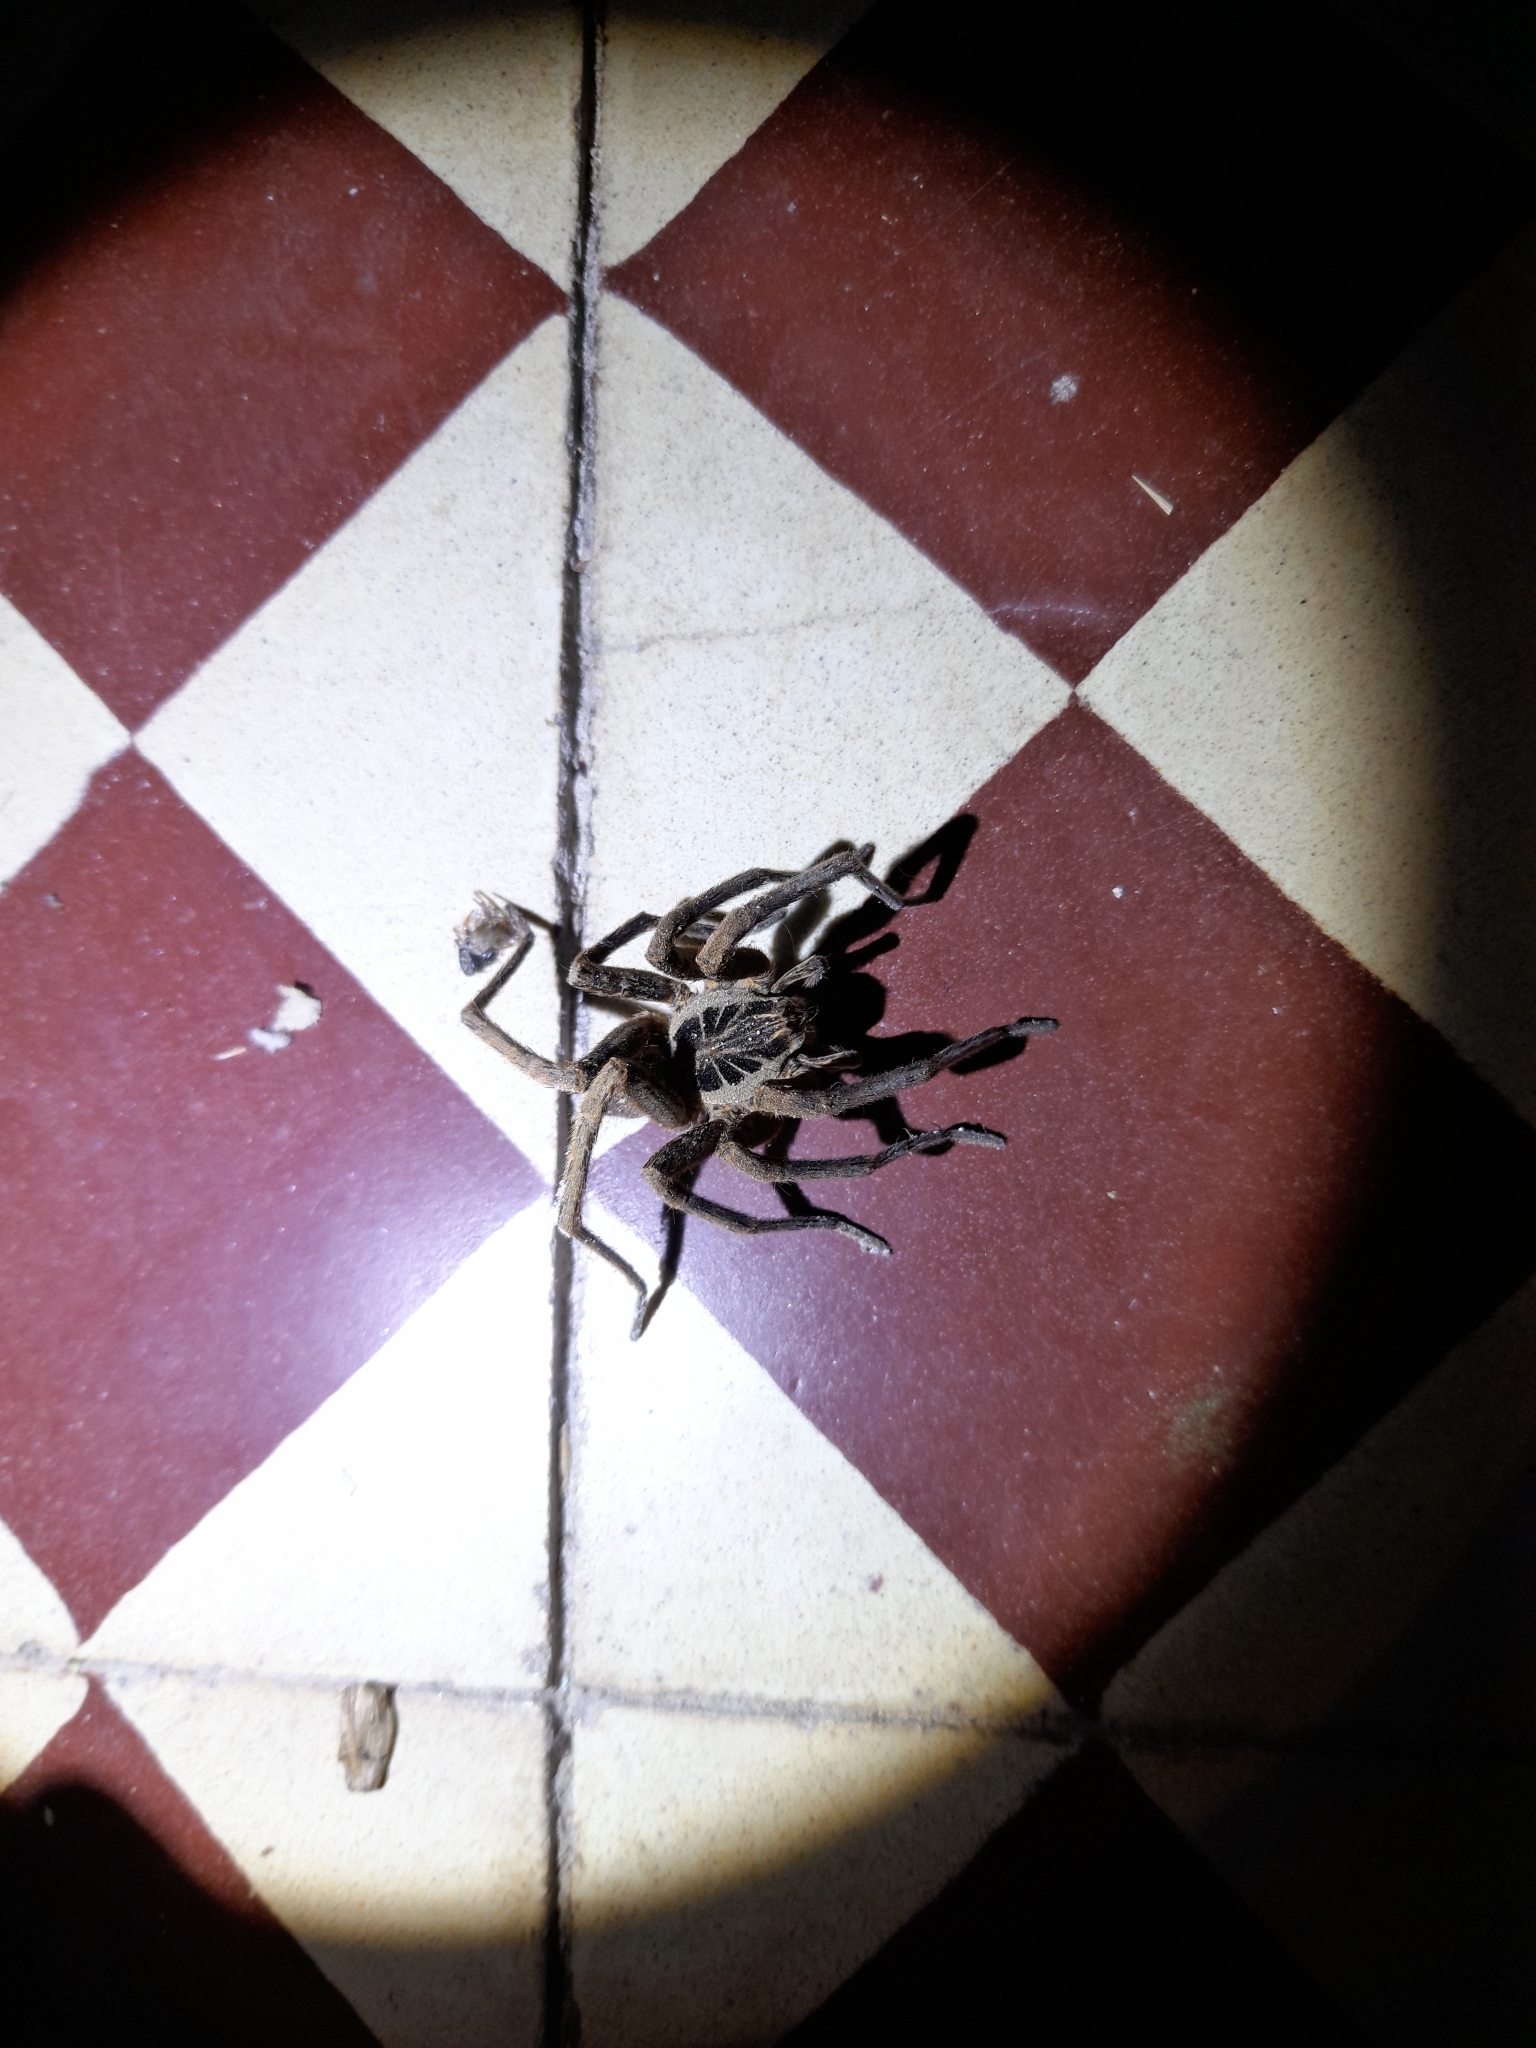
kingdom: Animalia
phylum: Arthropoda
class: Arachnida
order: Araneae
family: Ctenidae
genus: Ancylometes
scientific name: Ancylometes concolor
